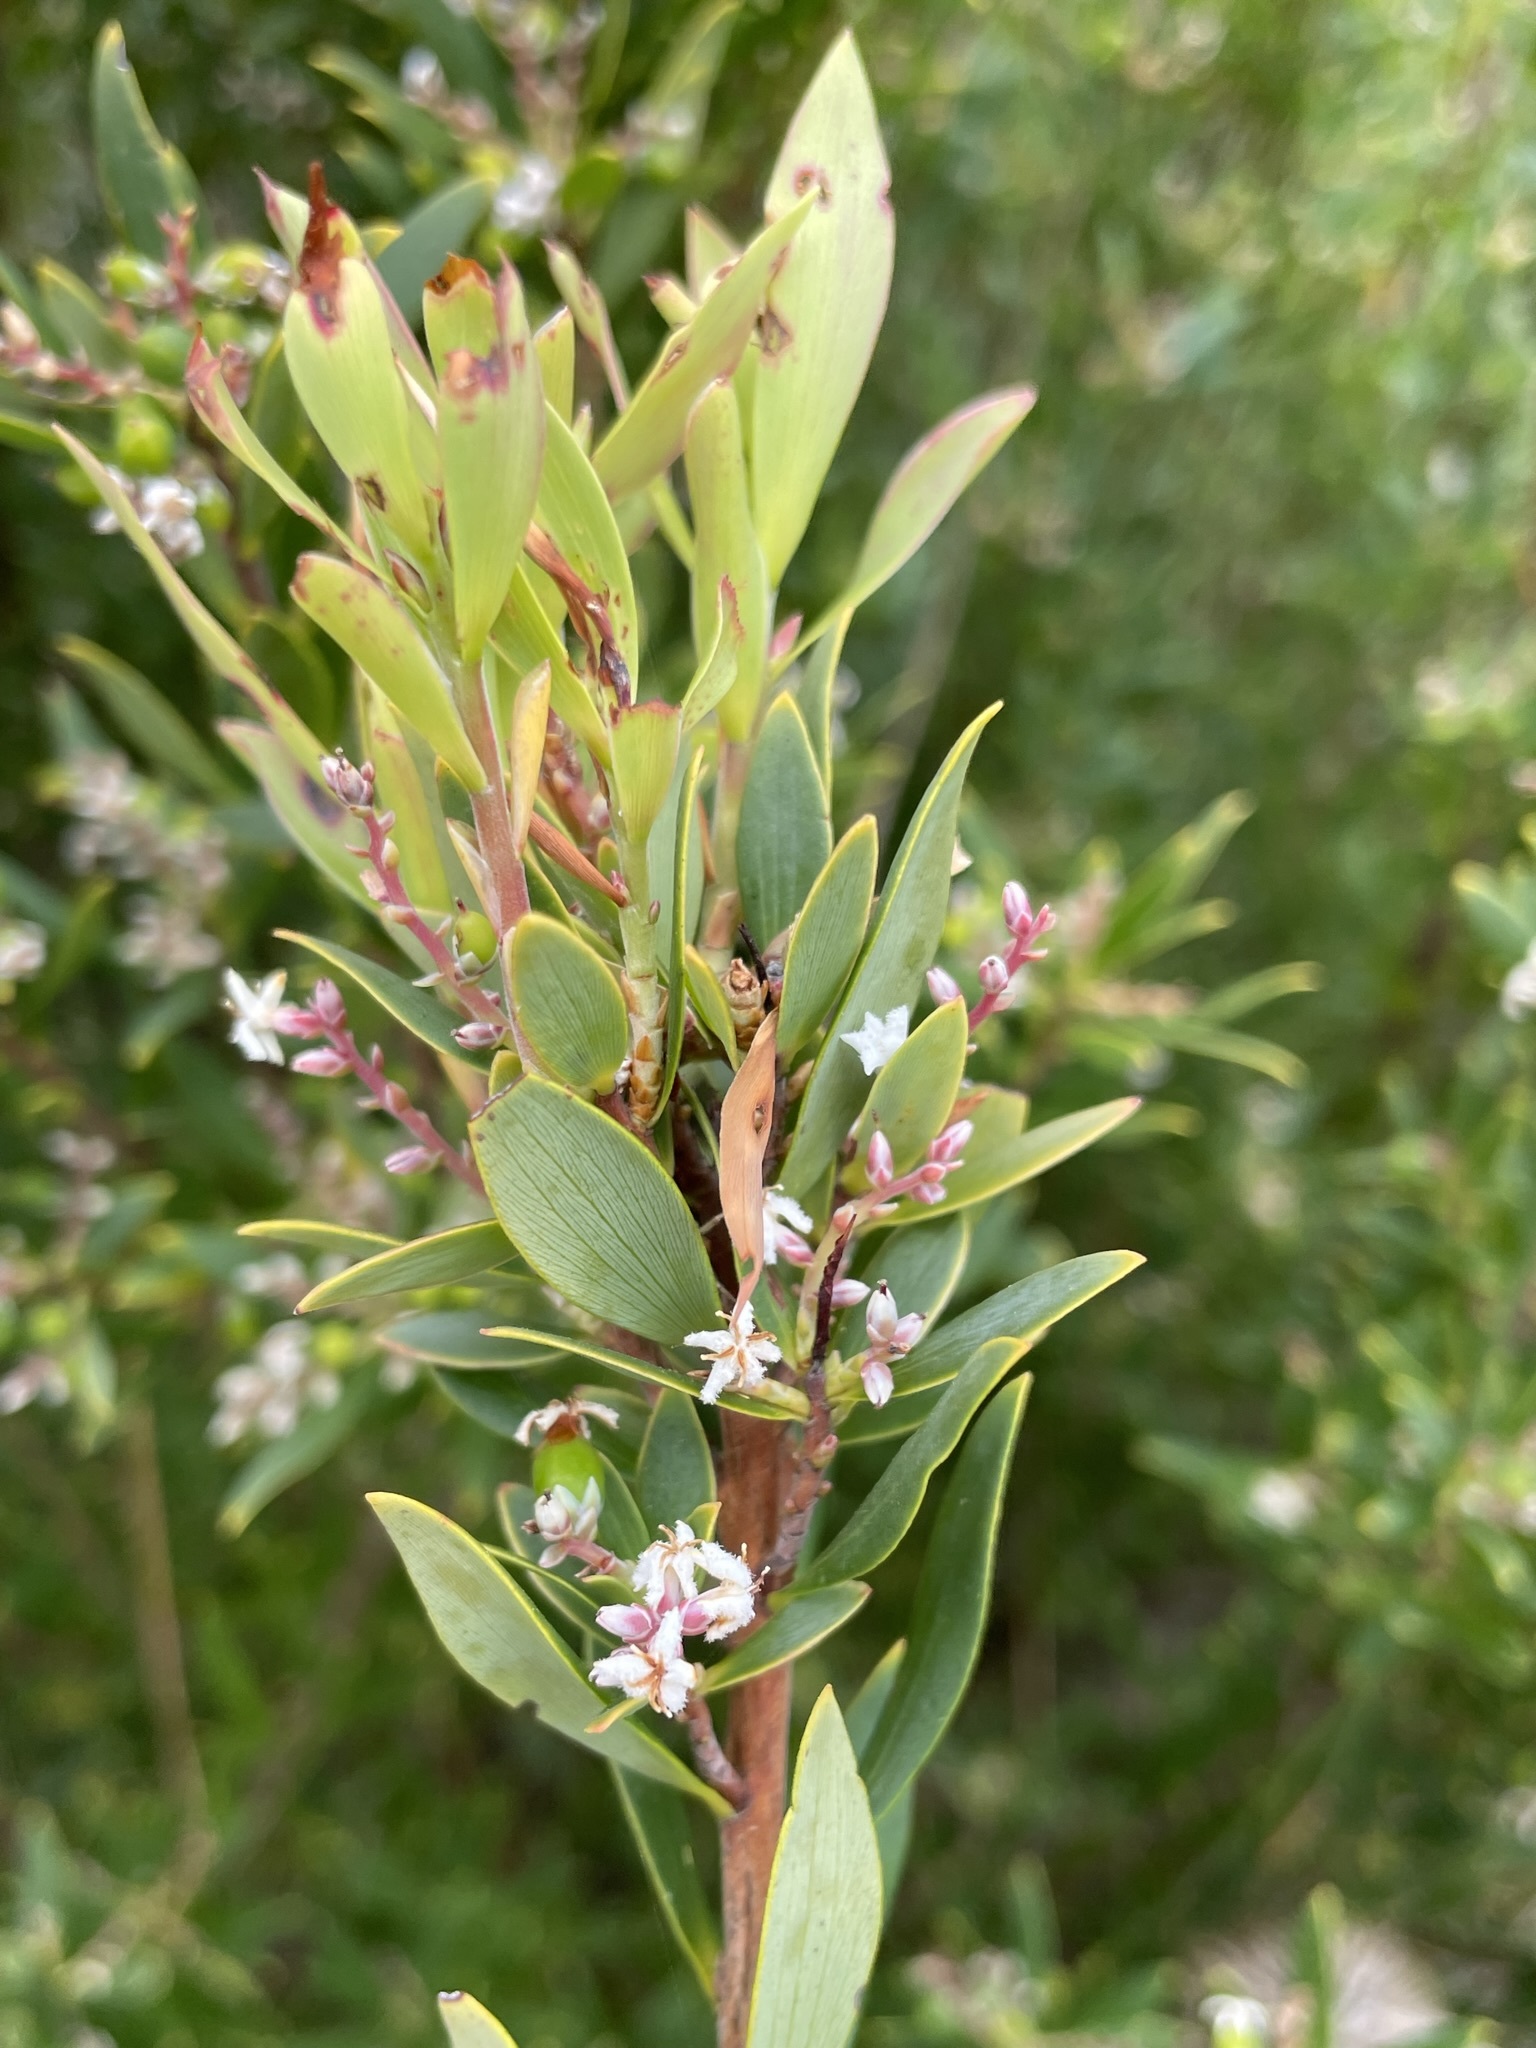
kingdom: Plantae
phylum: Tracheophyta
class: Magnoliopsida
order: Ericales
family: Ericaceae
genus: Leptecophylla
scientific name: Leptecophylla parvifolia
